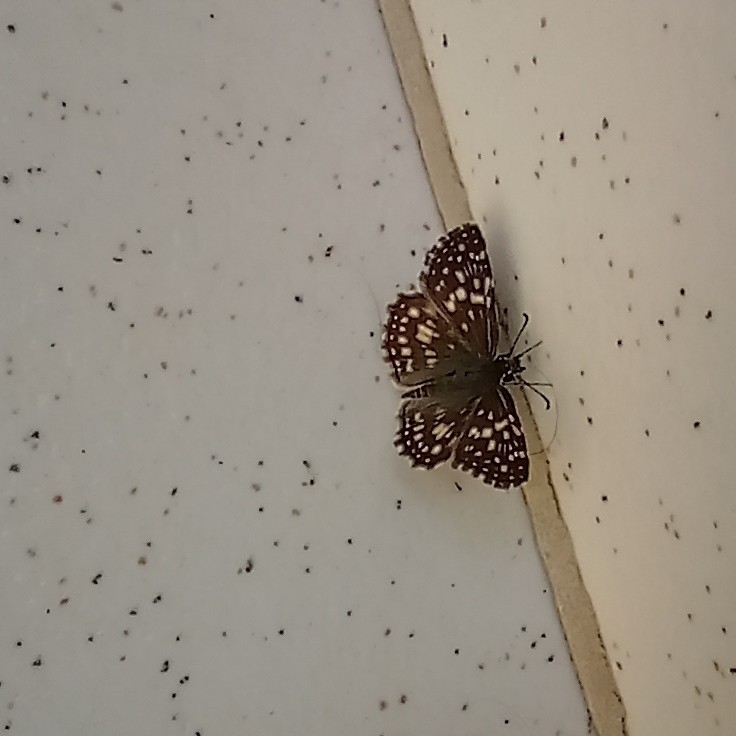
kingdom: Animalia
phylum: Arthropoda
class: Insecta
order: Lepidoptera
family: Hesperiidae
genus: Pyrgus
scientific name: Pyrgus oileus
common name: Tropical checkered-skipper
